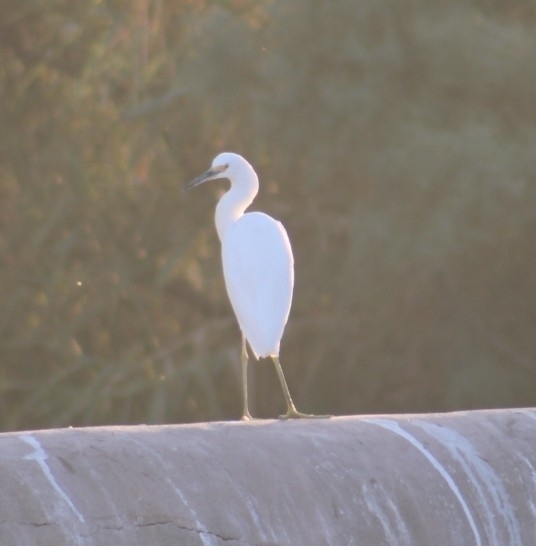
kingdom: Animalia
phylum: Chordata
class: Aves
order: Pelecaniformes
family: Ardeidae
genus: Egretta
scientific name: Egretta thula
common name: Snowy egret
